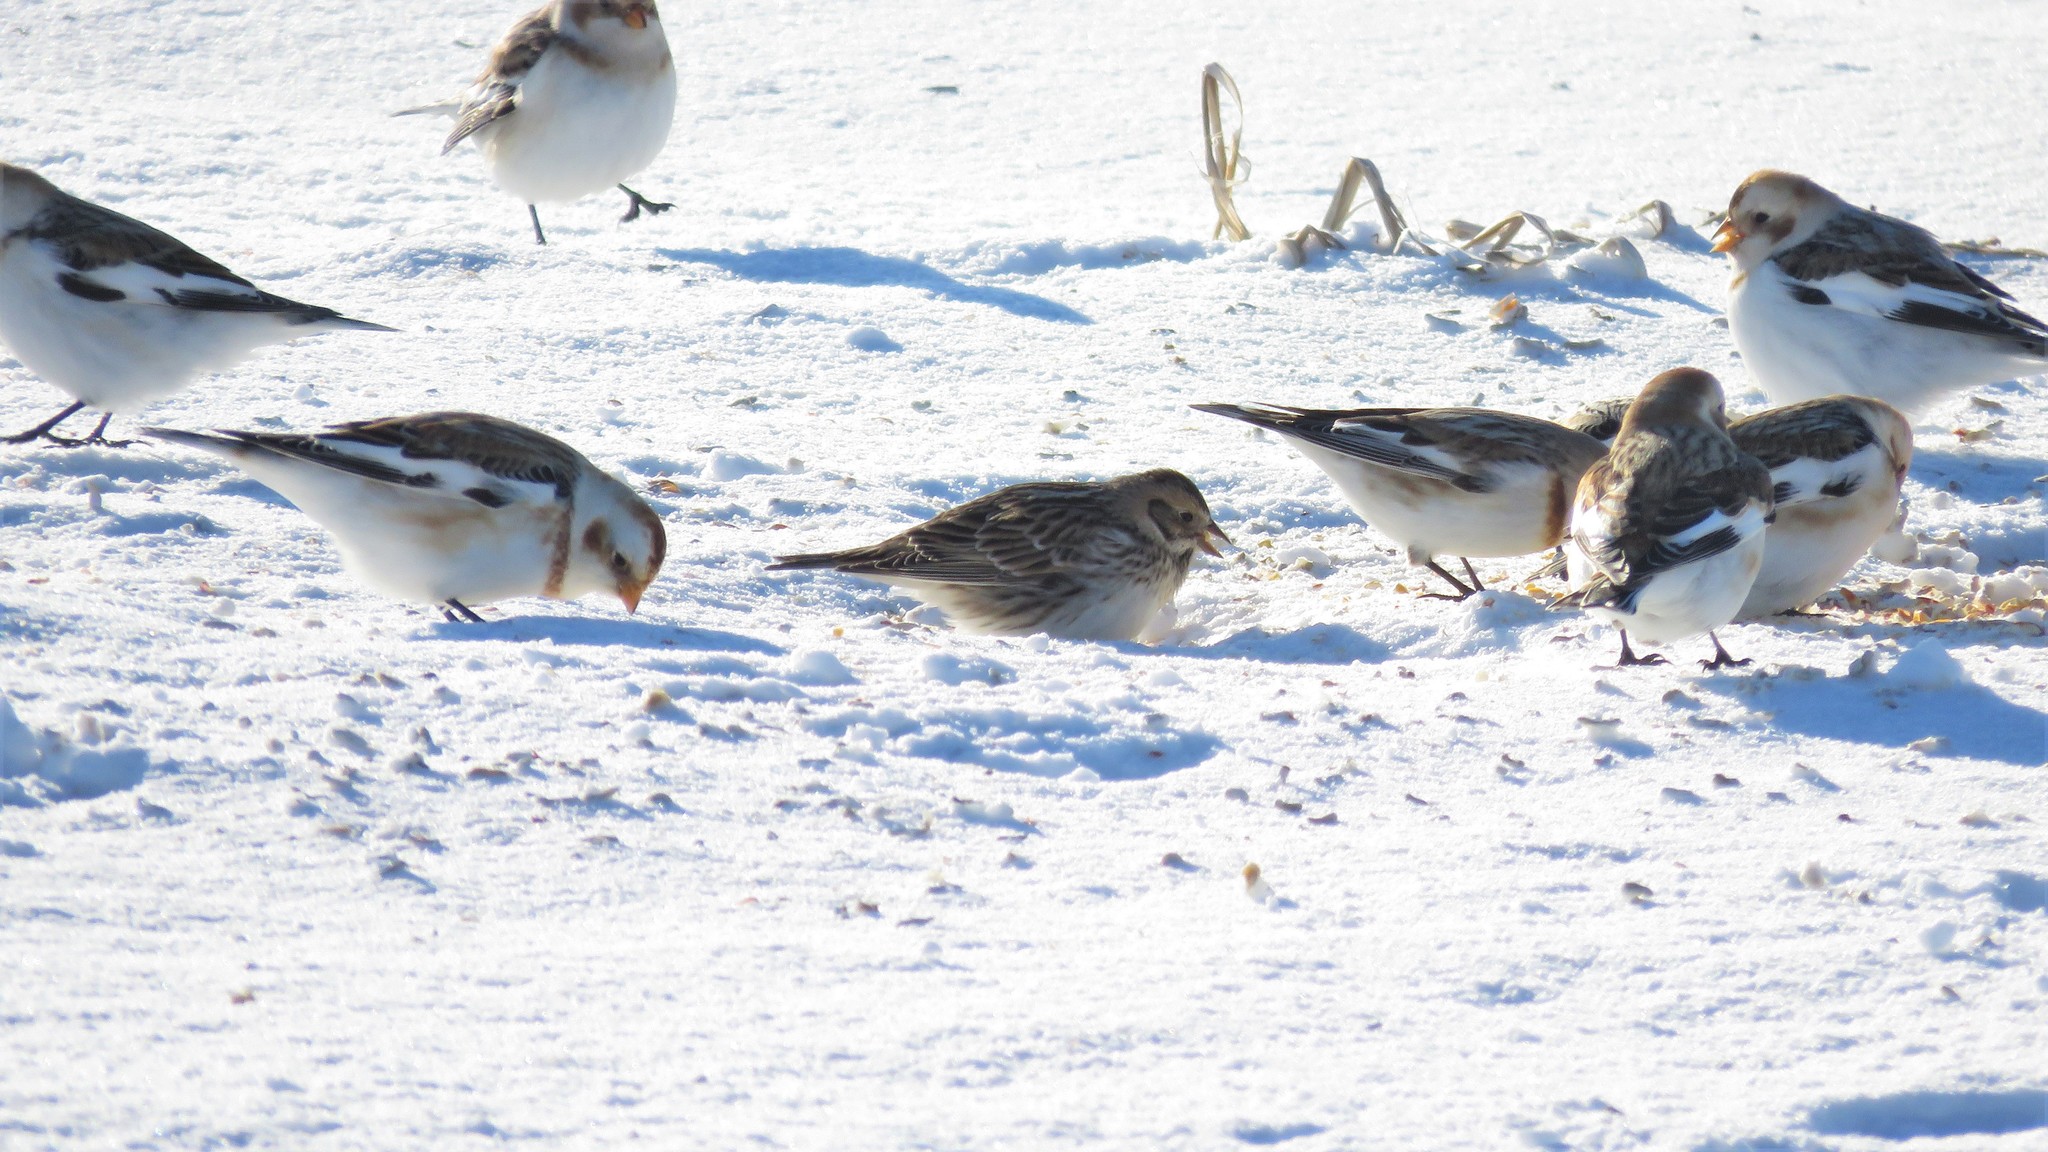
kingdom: Animalia
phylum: Chordata
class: Aves
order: Passeriformes
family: Calcariidae
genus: Calcarius
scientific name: Calcarius lapponicus
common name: Lapland longspur
